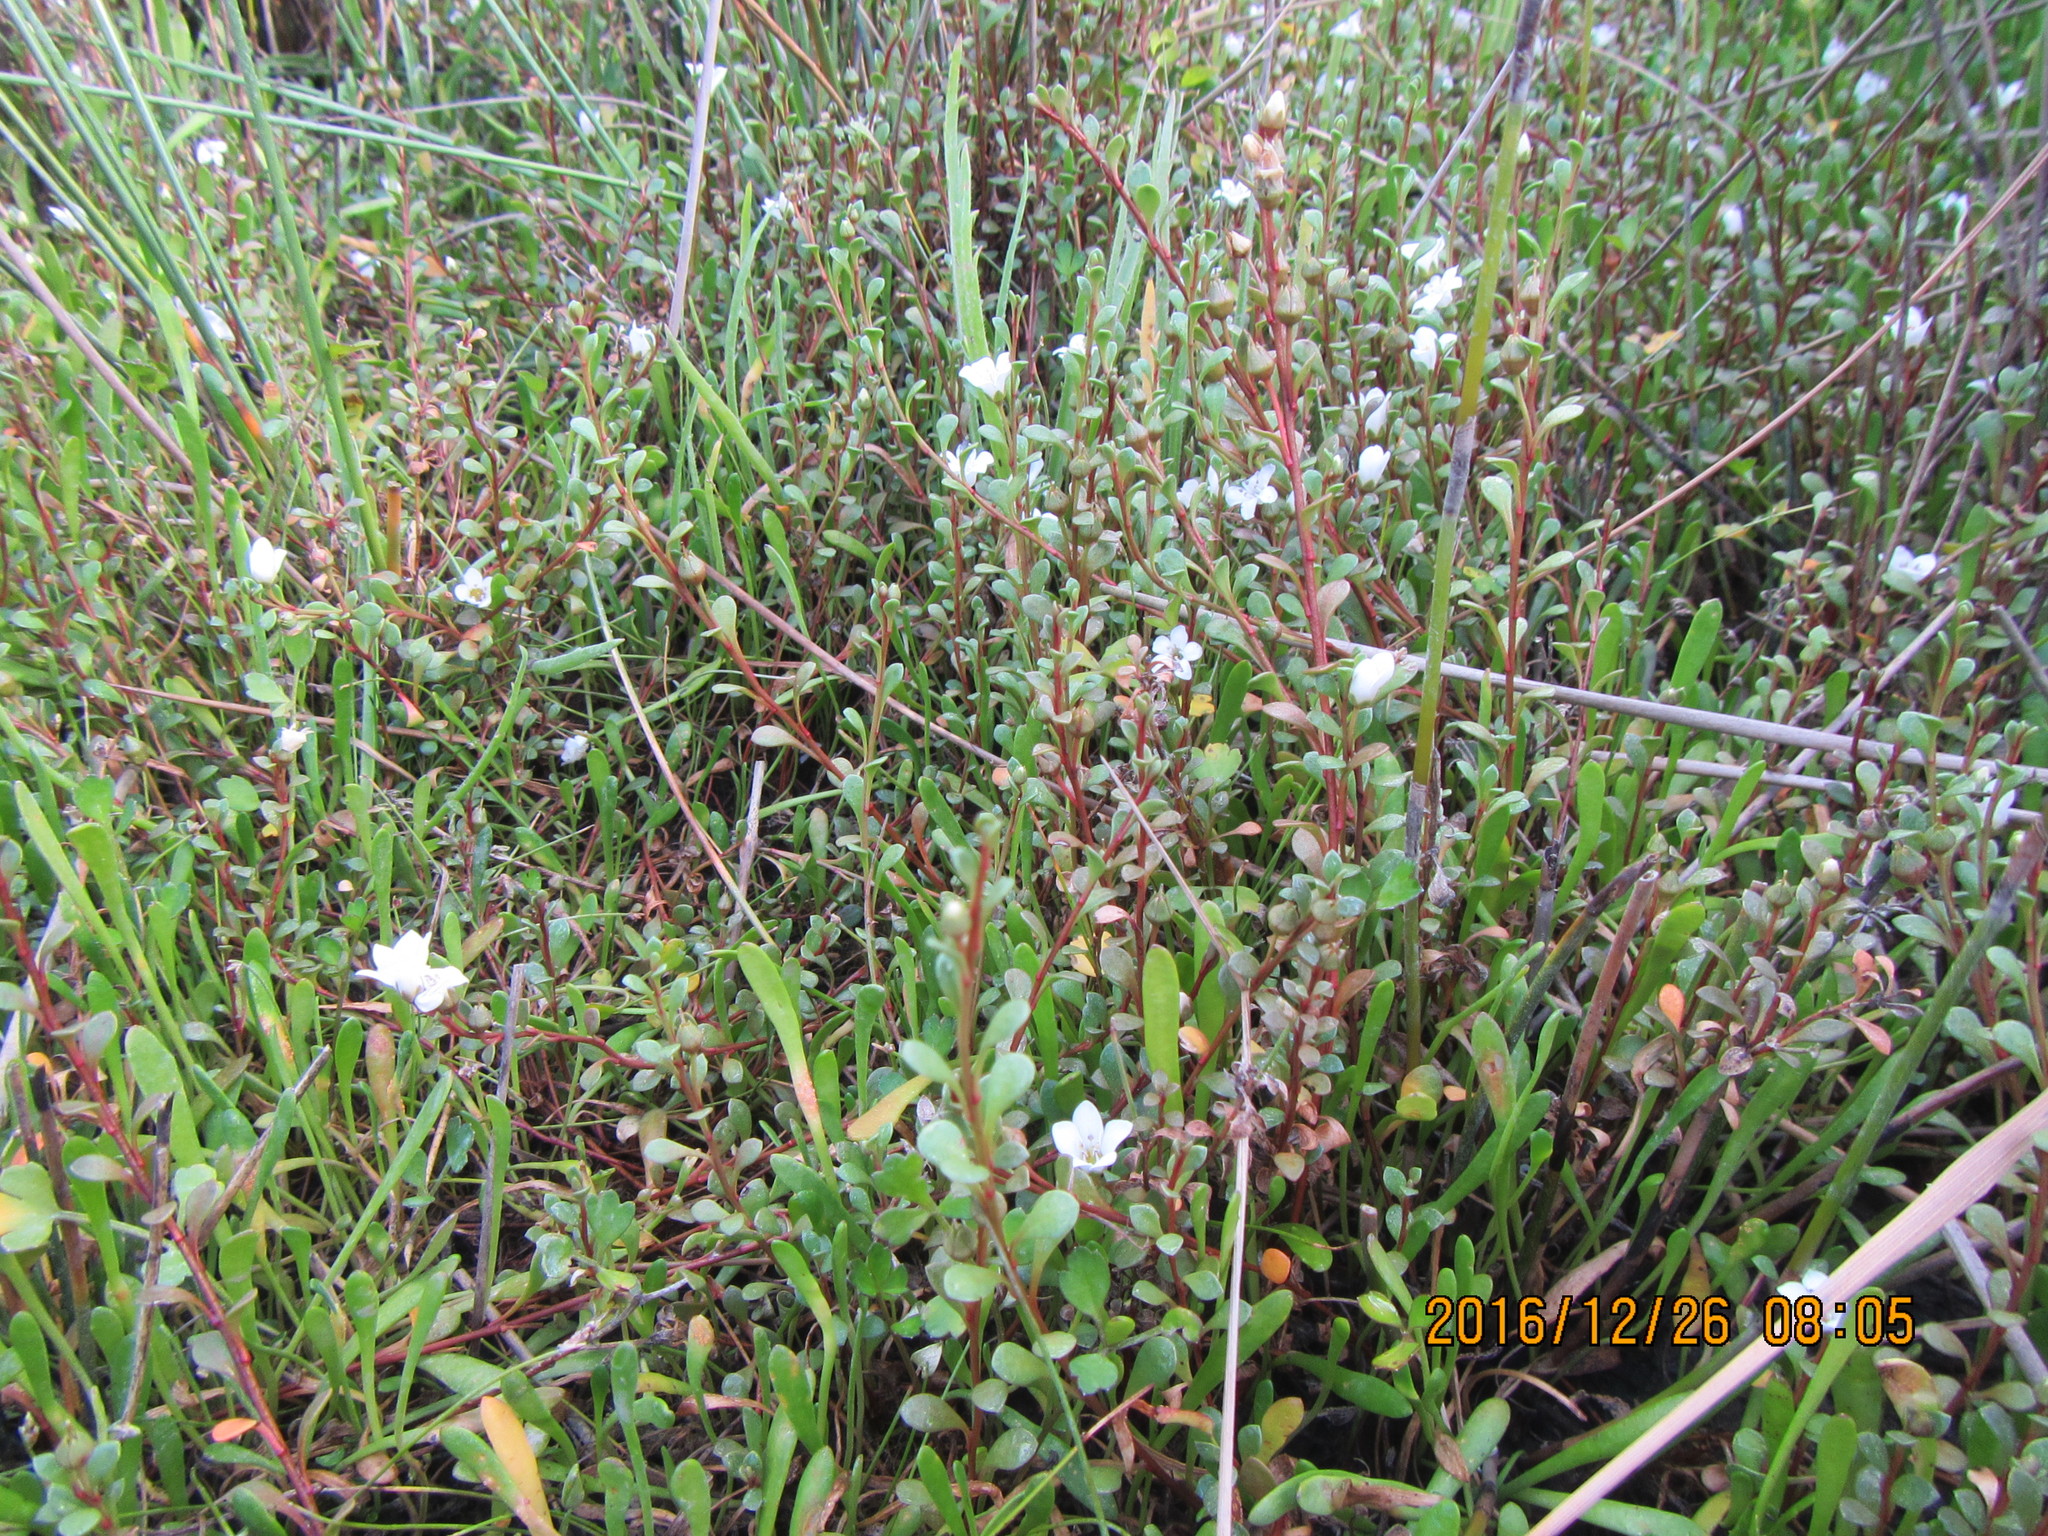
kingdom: Plantae
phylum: Tracheophyta
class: Magnoliopsida
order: Ericales
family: Primulaceae
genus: Samolus
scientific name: Samolus repens
